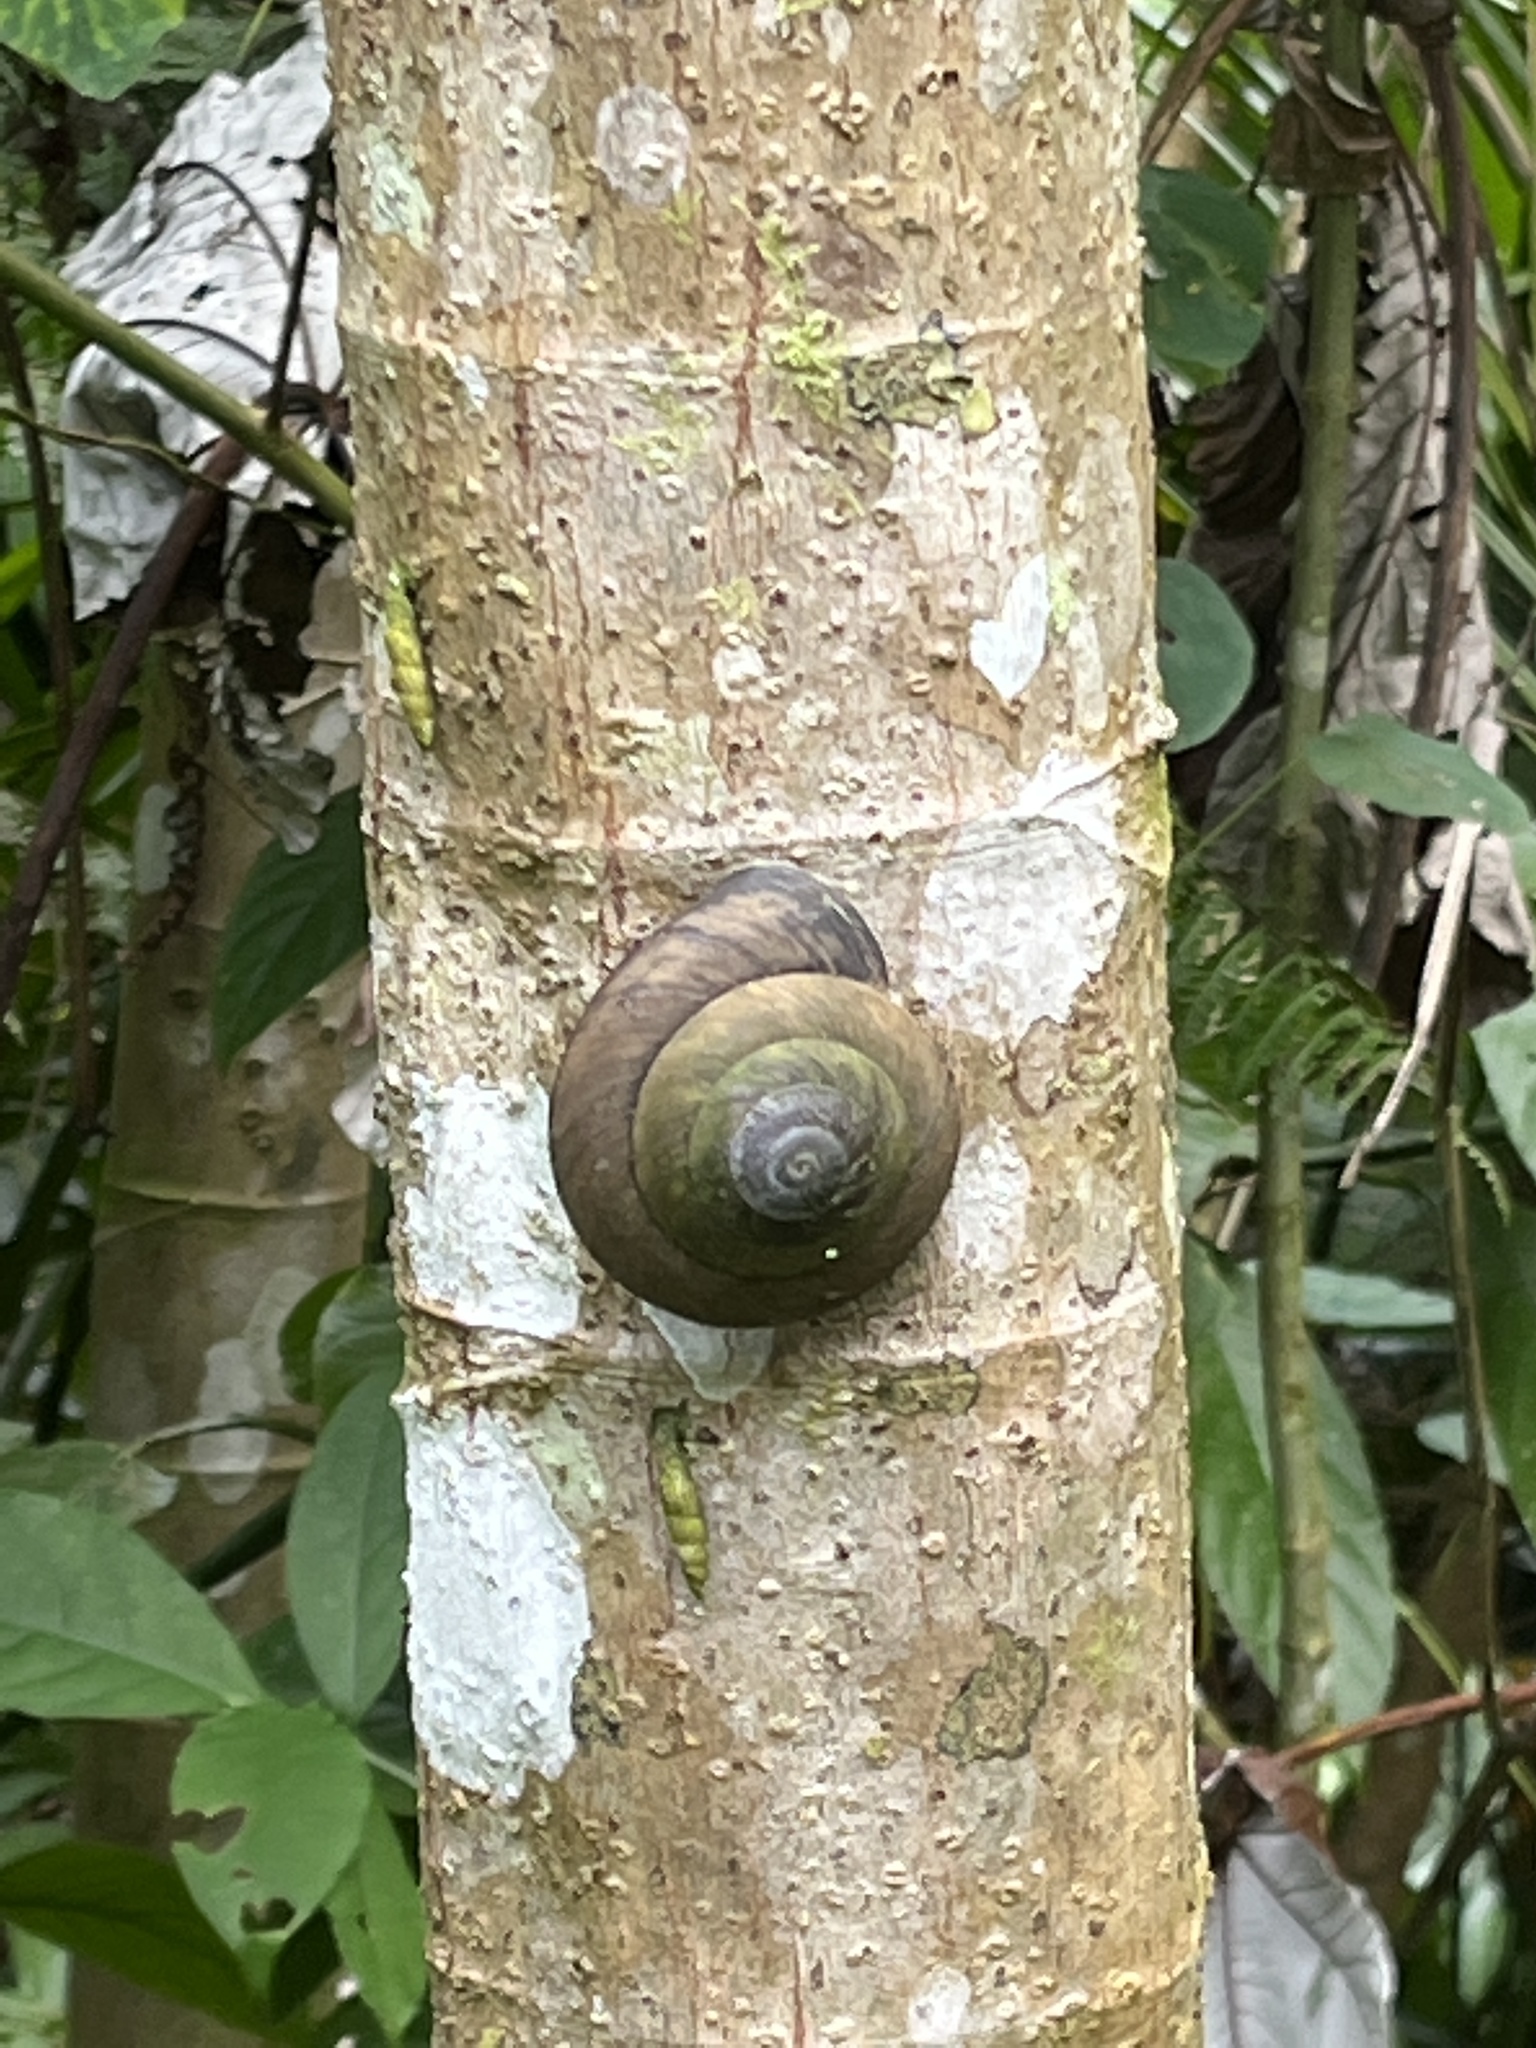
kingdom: Animalia
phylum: Mollusca
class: Gastropoda
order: Stylommatophora
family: Solaropsidae
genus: Caracolus
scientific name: Caracolus carocolla
